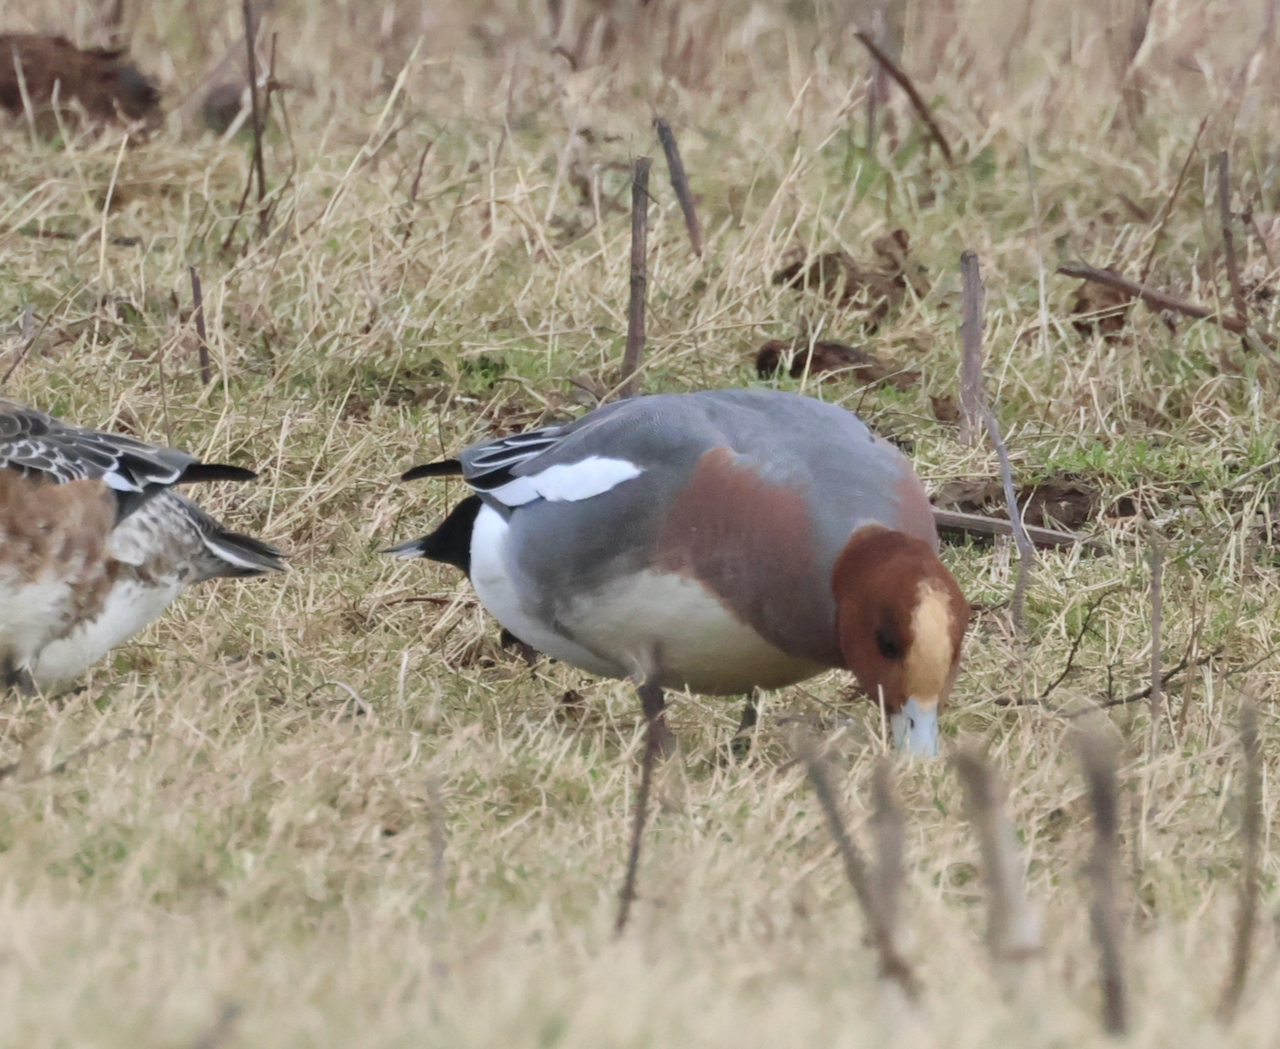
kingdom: Animalia
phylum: Chordata
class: Aves
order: Anseriformes
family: Anatidae
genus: Mareca
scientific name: Mareca penelope
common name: Eurasian wigeon
